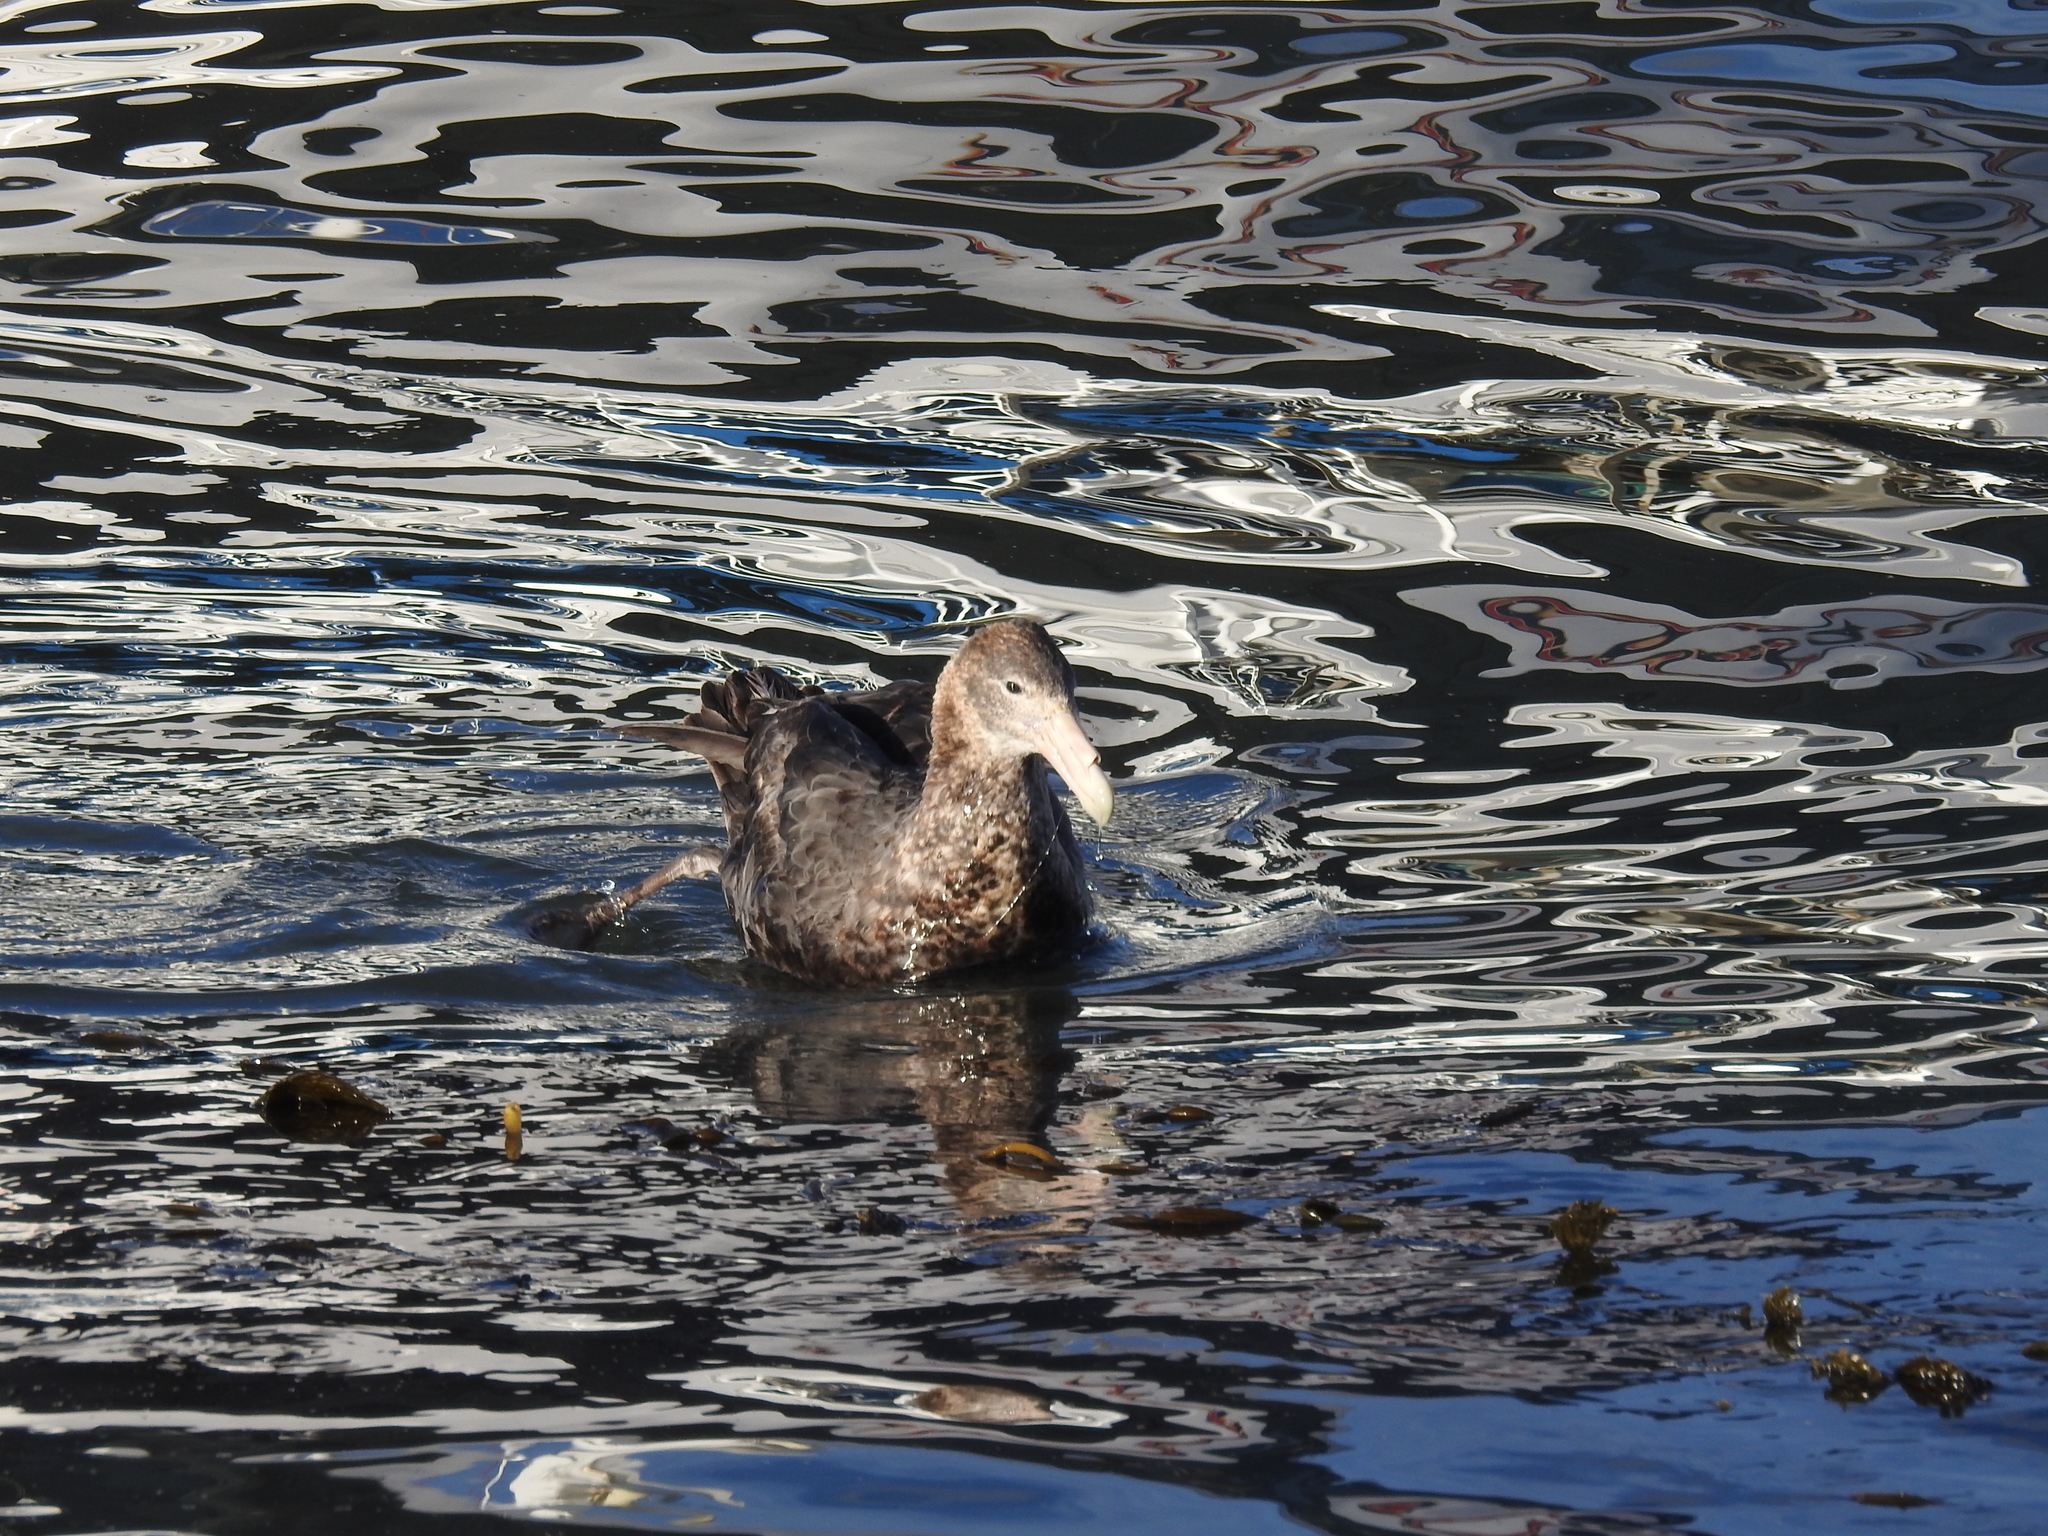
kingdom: Animalia
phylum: Chordata
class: Aves
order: Procellariiformes
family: Procellariidae
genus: Macronectes
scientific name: Macronectes giganteus
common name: Southern giant petrel
